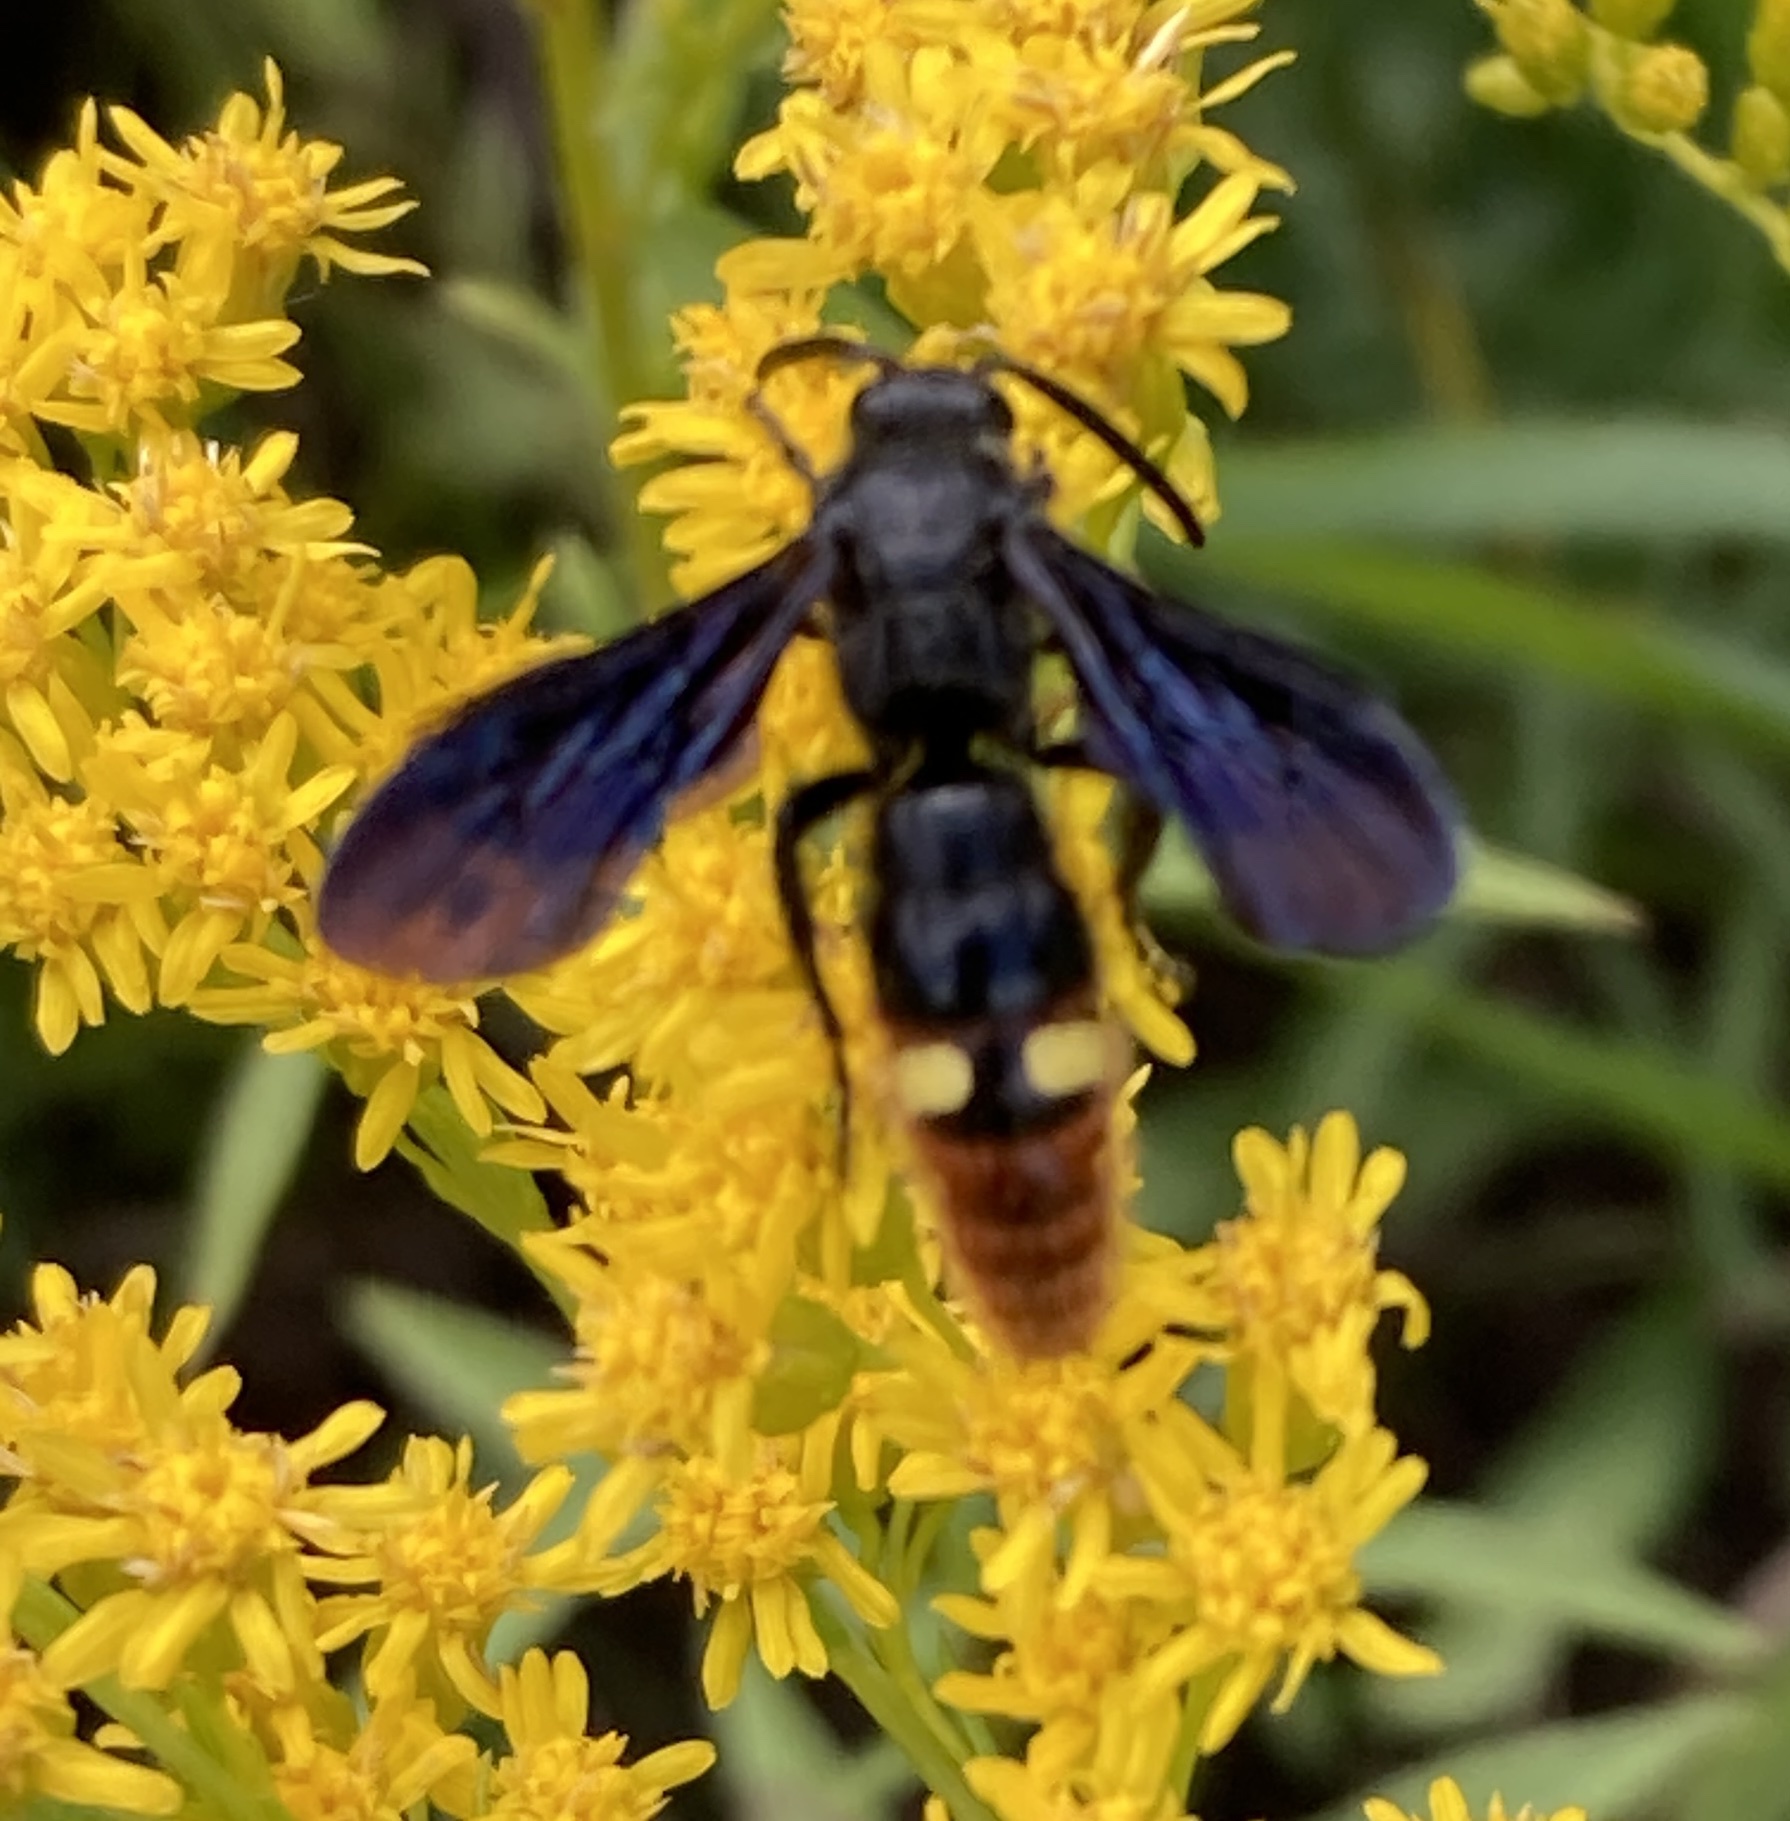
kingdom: Animalia
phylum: Arthropoda
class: Insecta
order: Hymenoptera
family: Scoliidae
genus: Scolia
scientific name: Scolia dubia
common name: Blue-winged scoliid wasp
